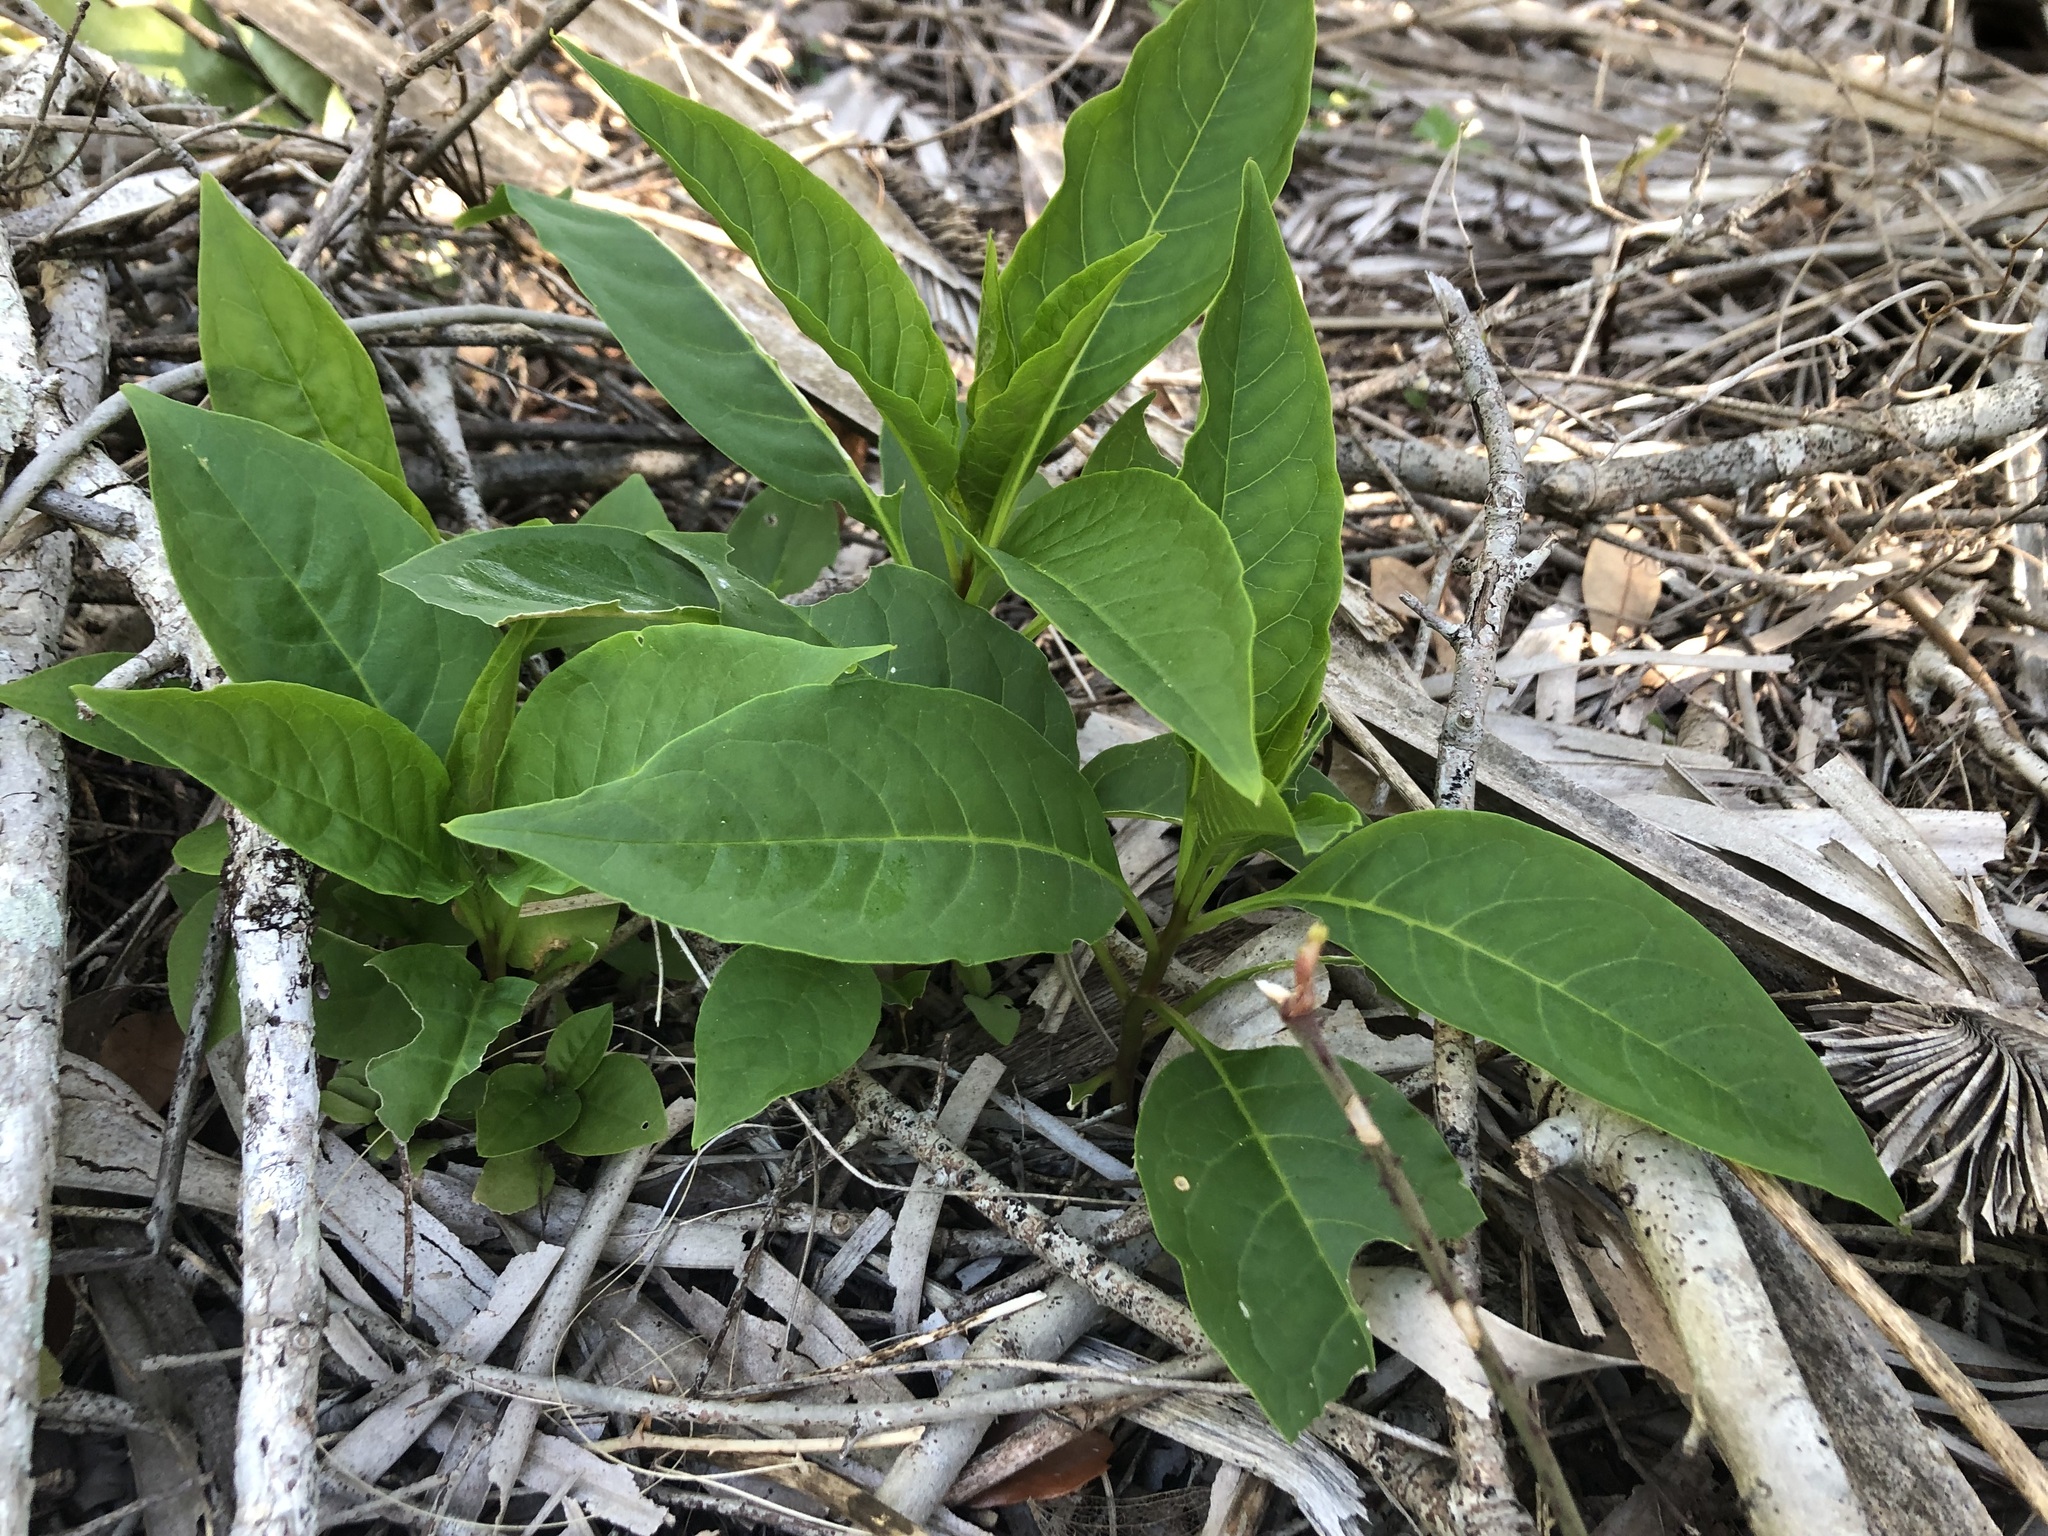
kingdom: Plantae
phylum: Tracheophyta
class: Magnoliopsida
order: Caryophyllales
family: Phytolaccaceae
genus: Phytolacca
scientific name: Phytolacca americana
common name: American pokeweed
